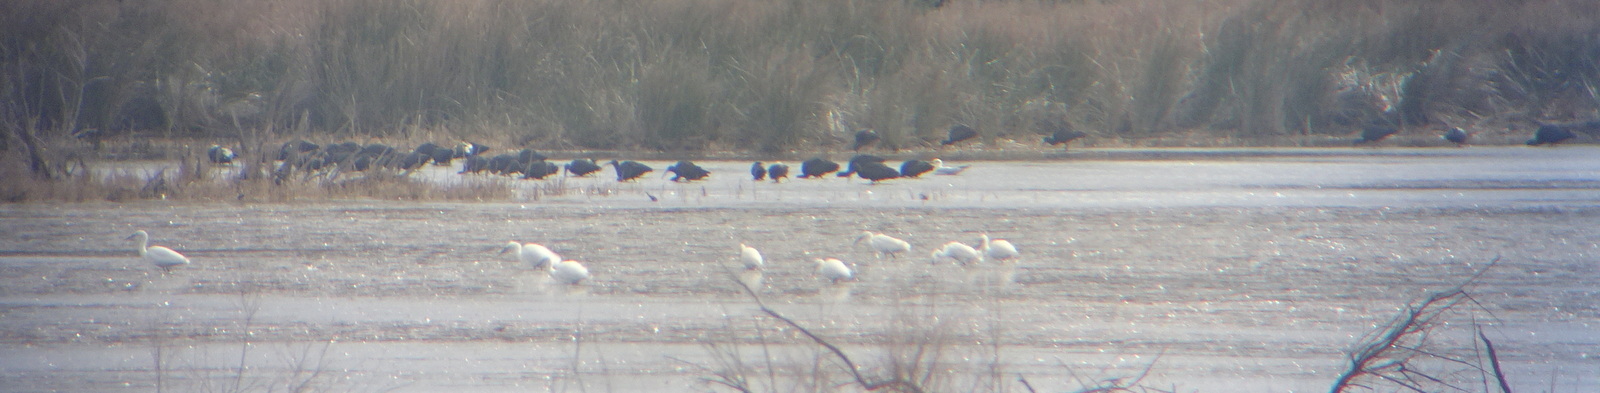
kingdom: Animalia
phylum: Chordata
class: Aves
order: Pelecaniformes
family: Threskiornithidae
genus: Plegadis
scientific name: Plegadis falcinellus
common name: Glossy ibis
